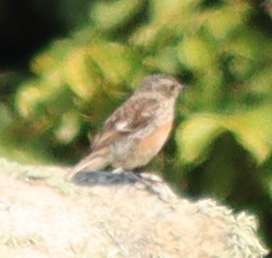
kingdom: Animalia
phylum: Chordata
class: Aves
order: Passeriformes
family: Muscicapidae
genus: Saxicola
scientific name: Saxicola rubicola
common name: European stonechat
